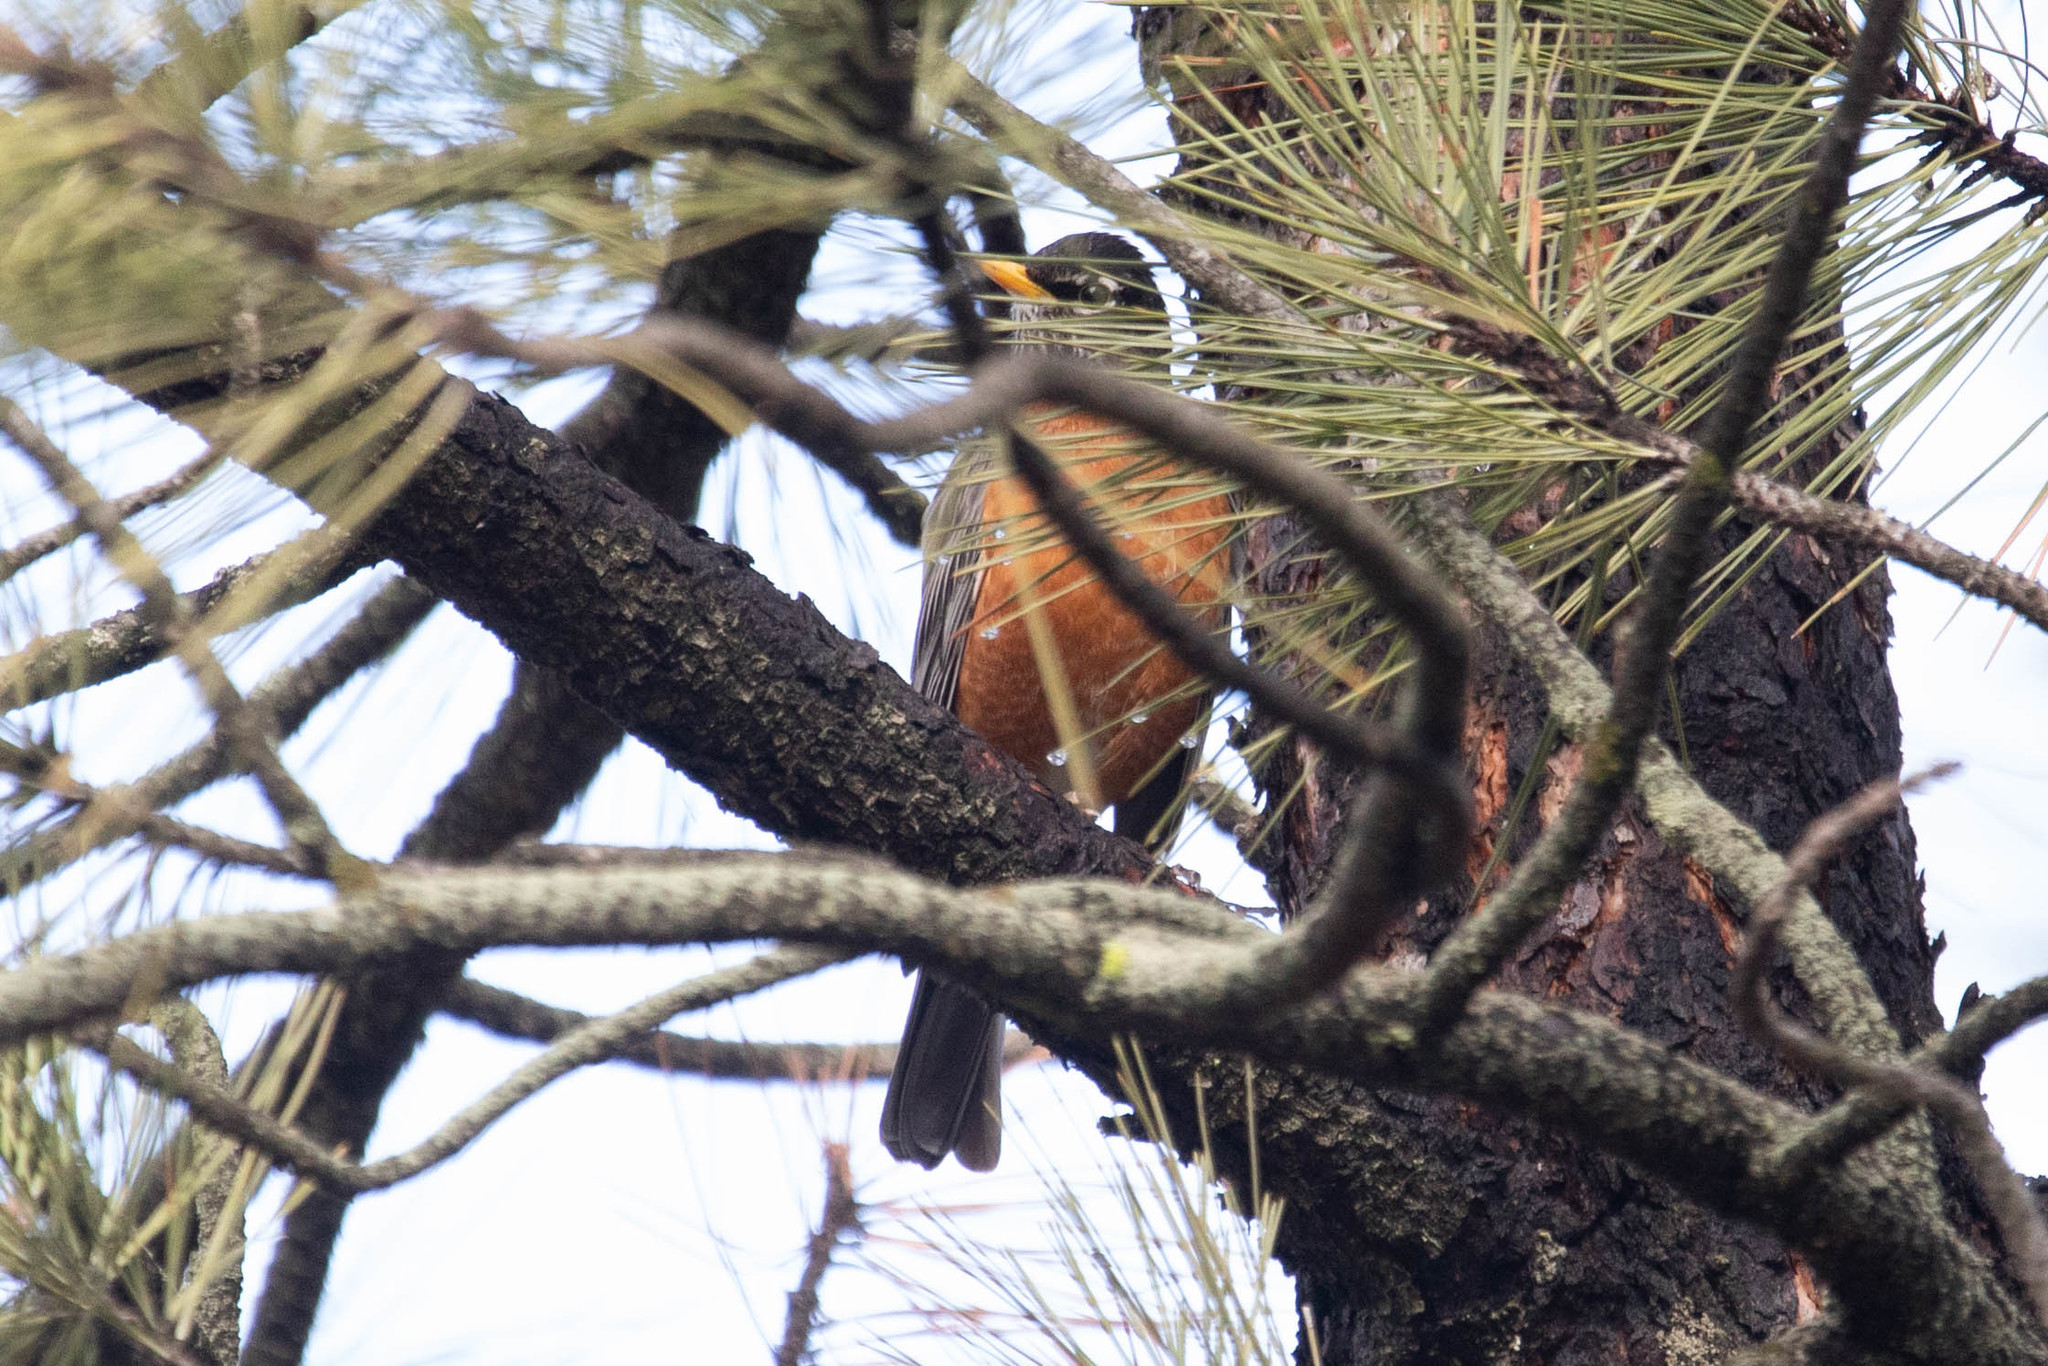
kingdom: Animalia
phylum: Chordata
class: Aves
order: Passeriformes
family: Turdidae
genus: Turdus
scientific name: Turdus migratorius
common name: American robin
